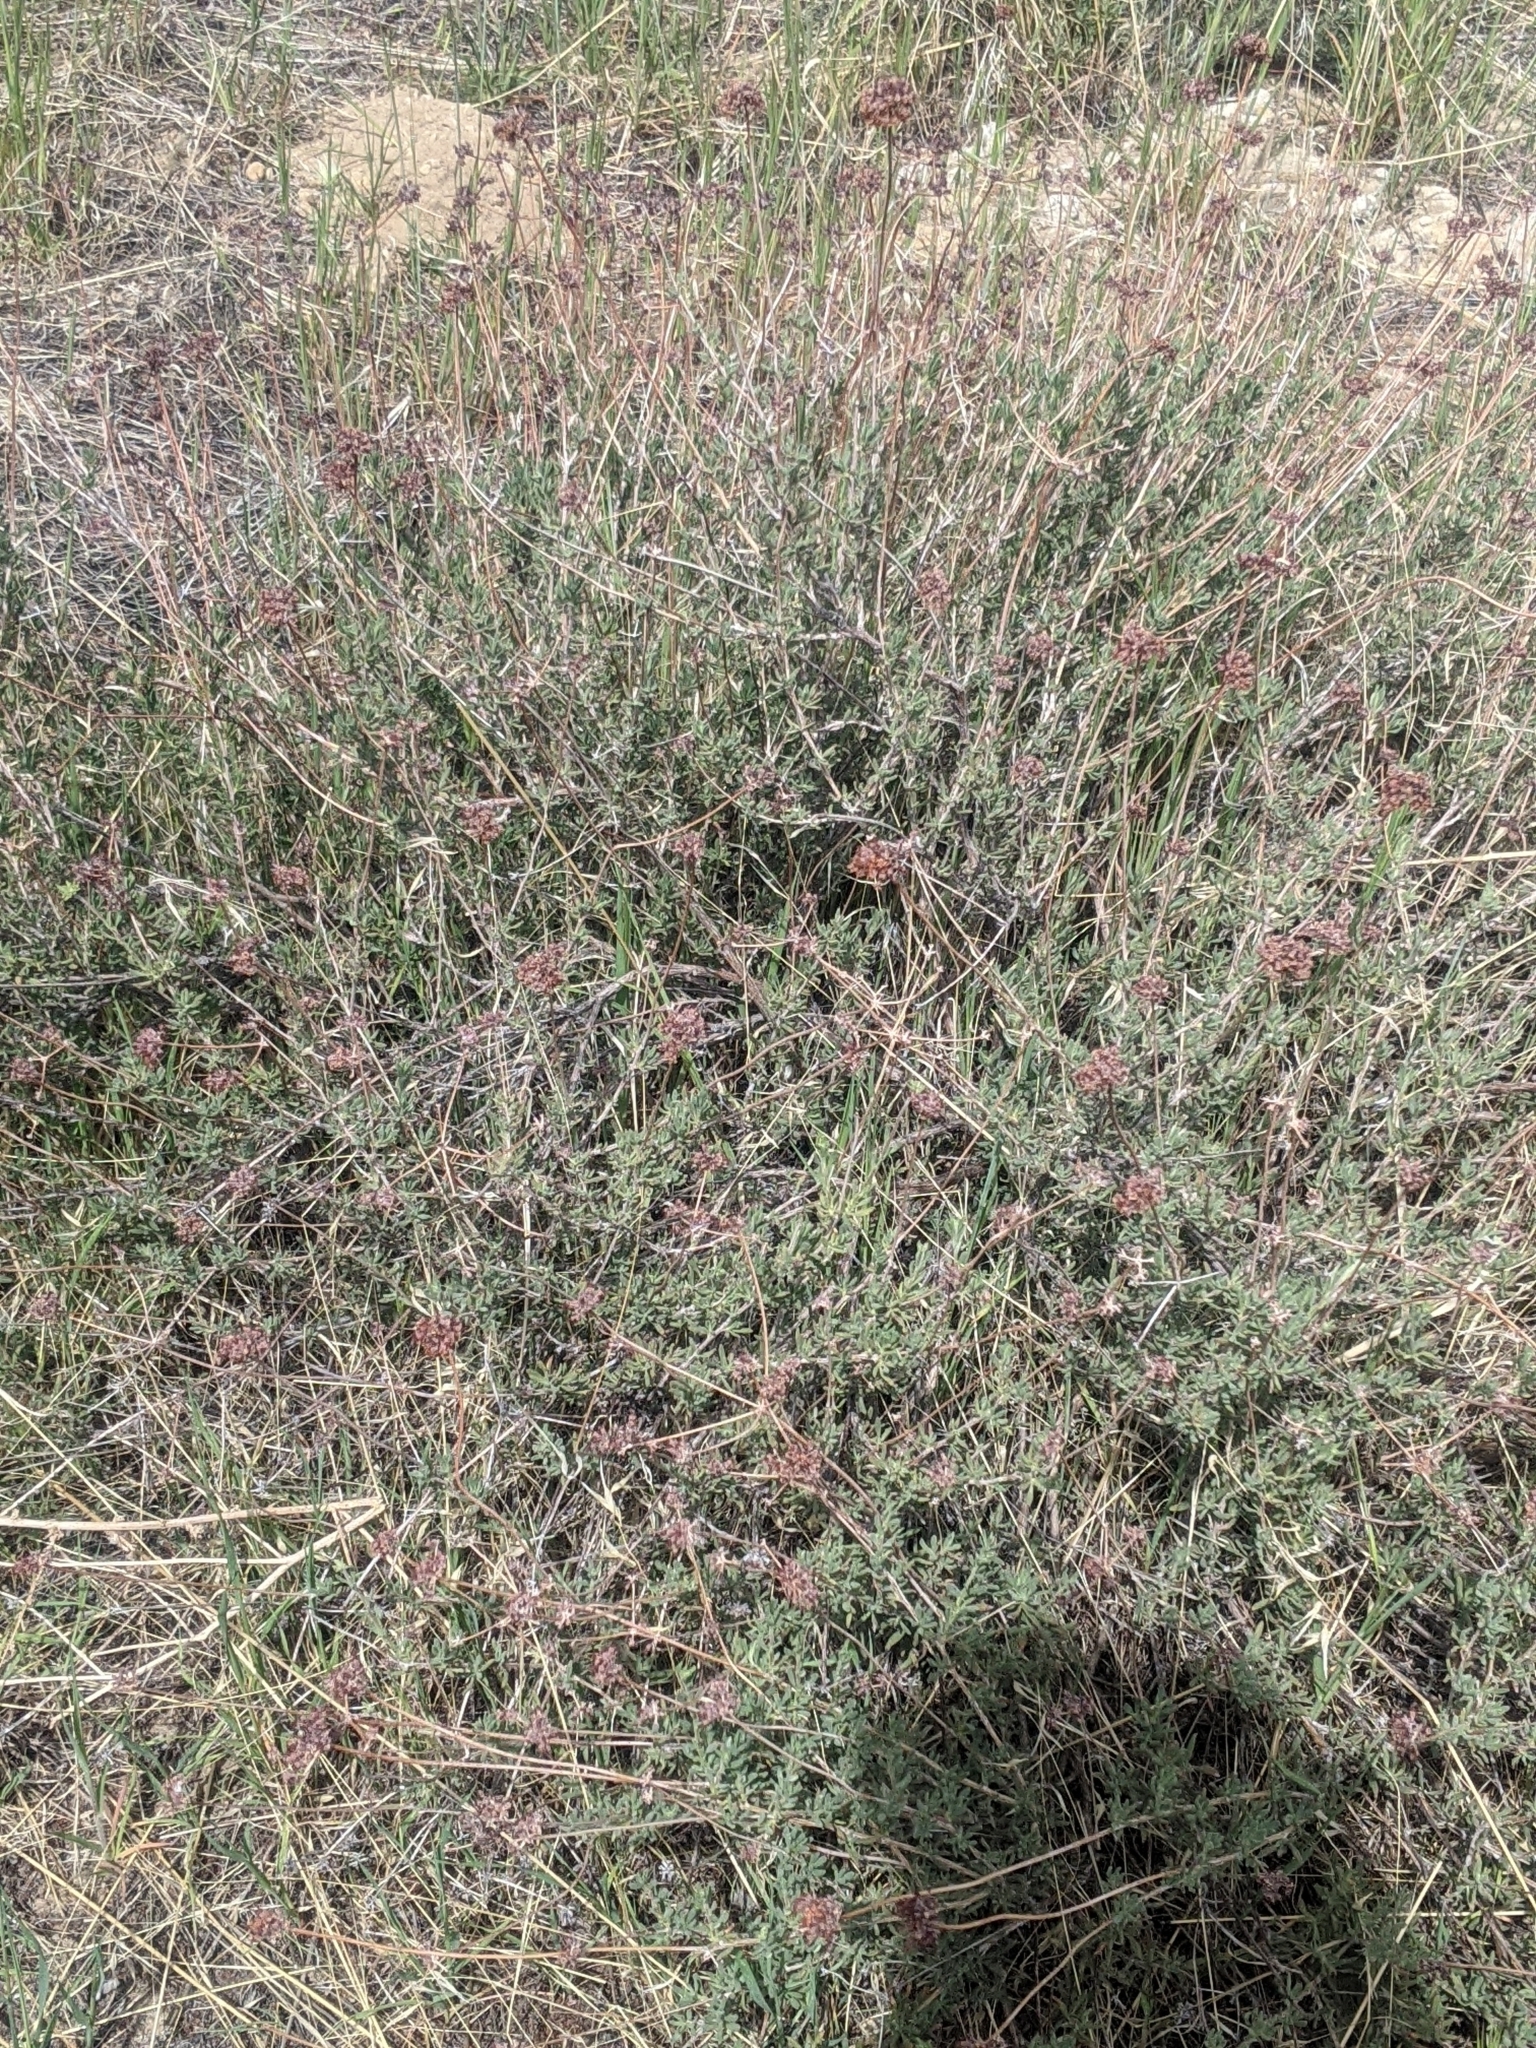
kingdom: Plantae
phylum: Tracheophyta
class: Magnoliopsida
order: Caryophyllales
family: Polygonaceae
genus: Eriogonum
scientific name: Eriogonum fasciculatum
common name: California wild buckwheat
